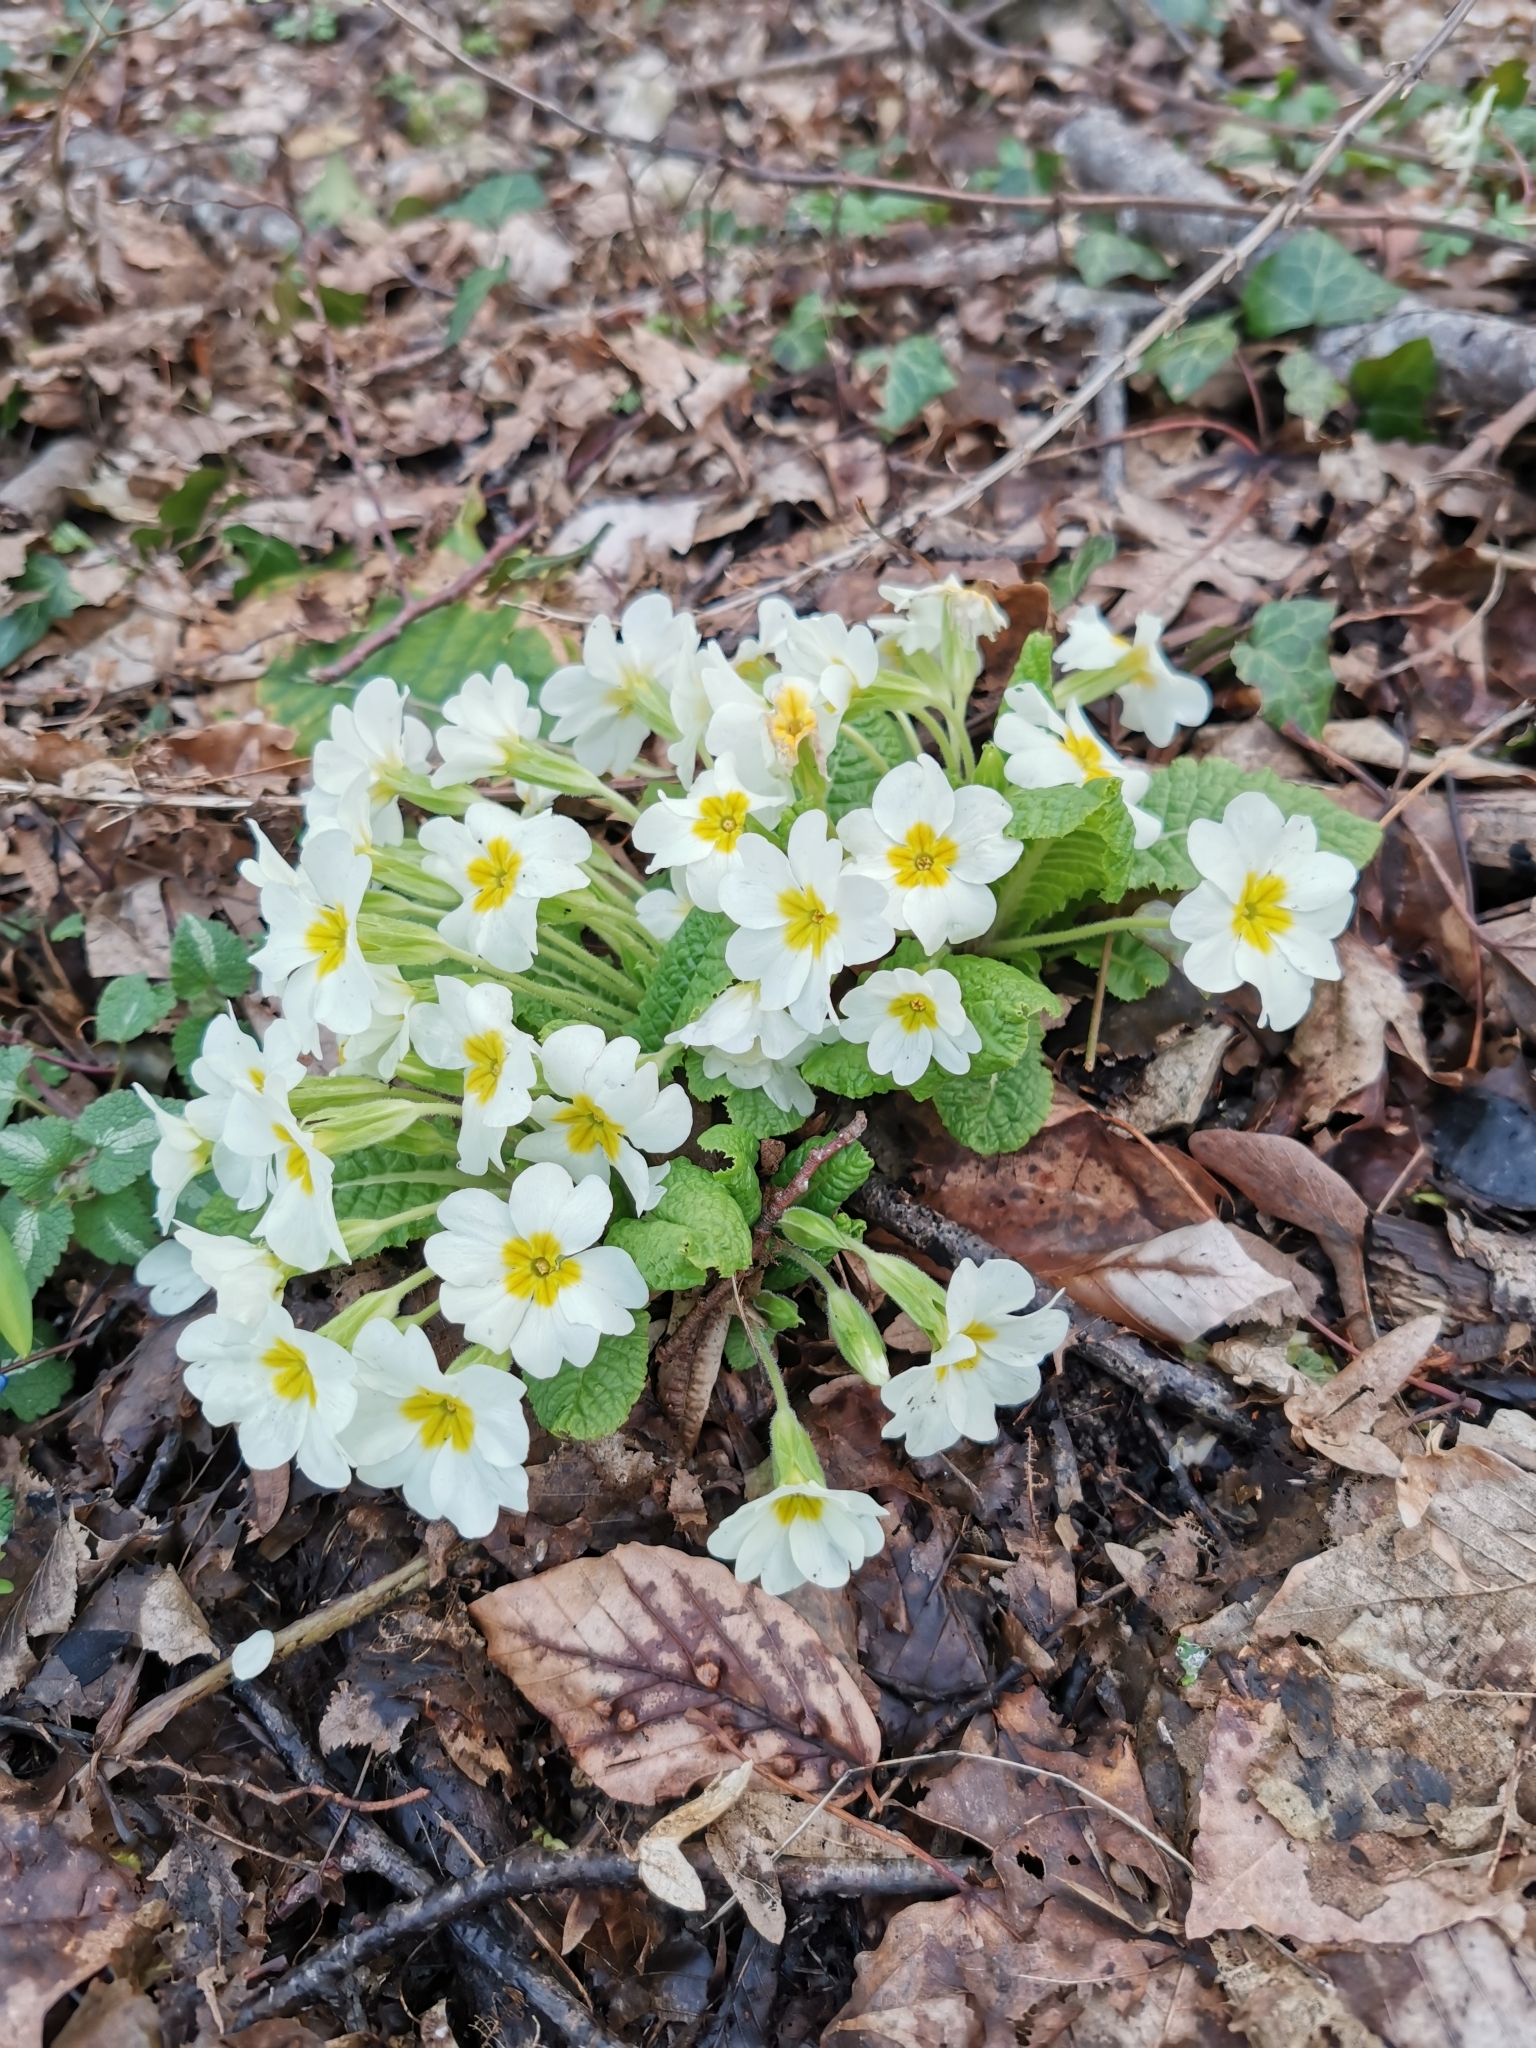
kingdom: Plantae
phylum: Tracheophyta
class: Magnoliopsida
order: Ericales
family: Primulaceae
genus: Primula
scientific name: Primula vulgaris
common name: Primrose
